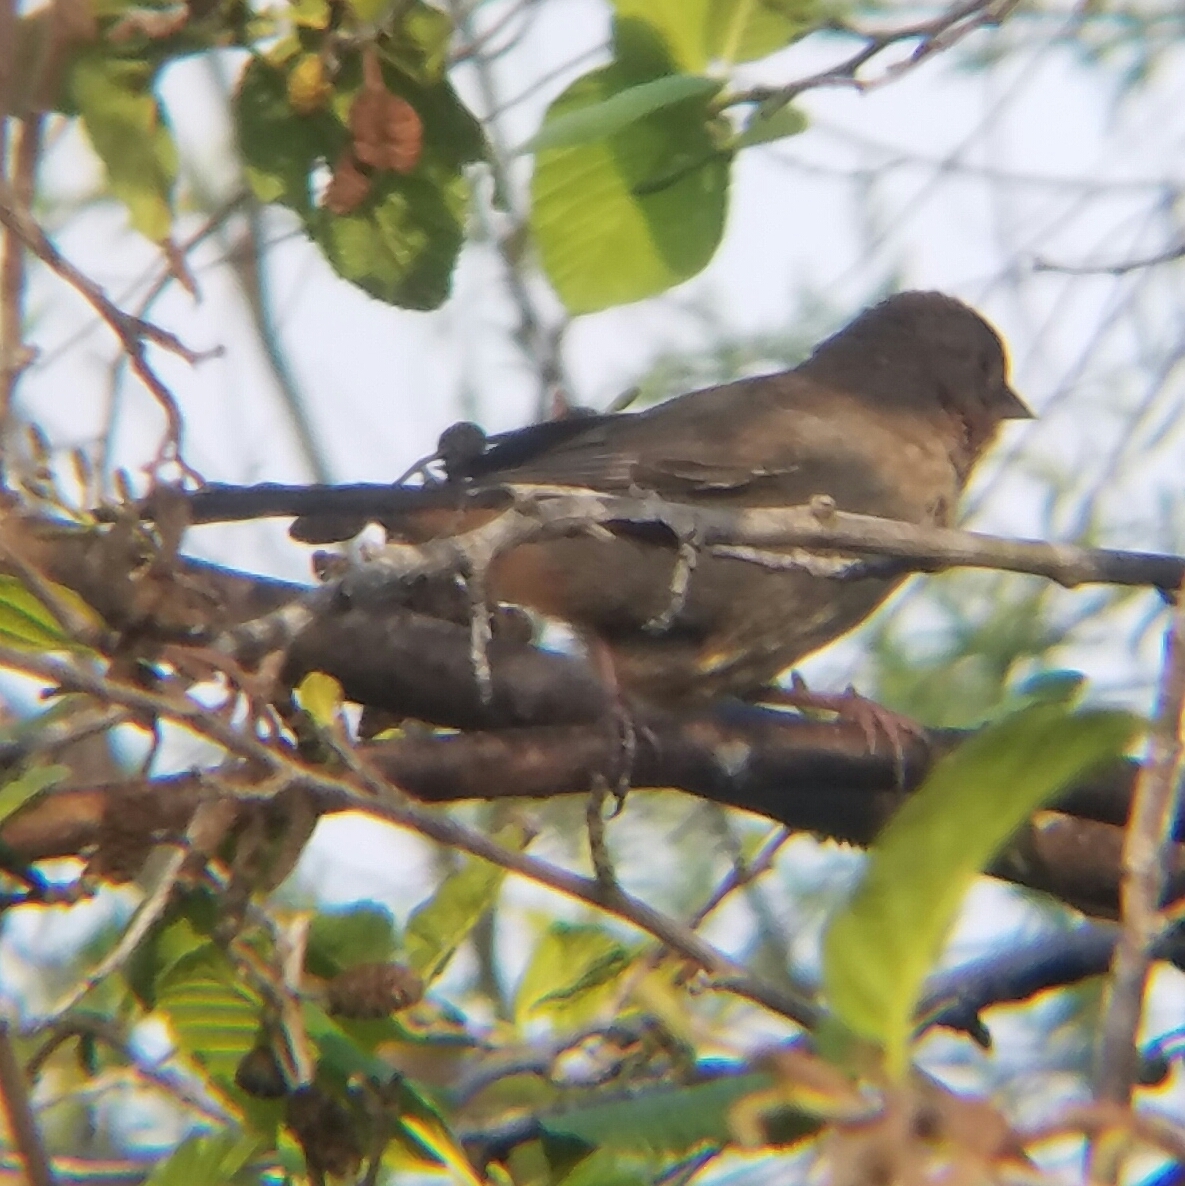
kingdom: Animalia
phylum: Chordata
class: Aves
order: Passeriformes
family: Passerellidae
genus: Melozone
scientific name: Melozone crissalis
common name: California towhee
